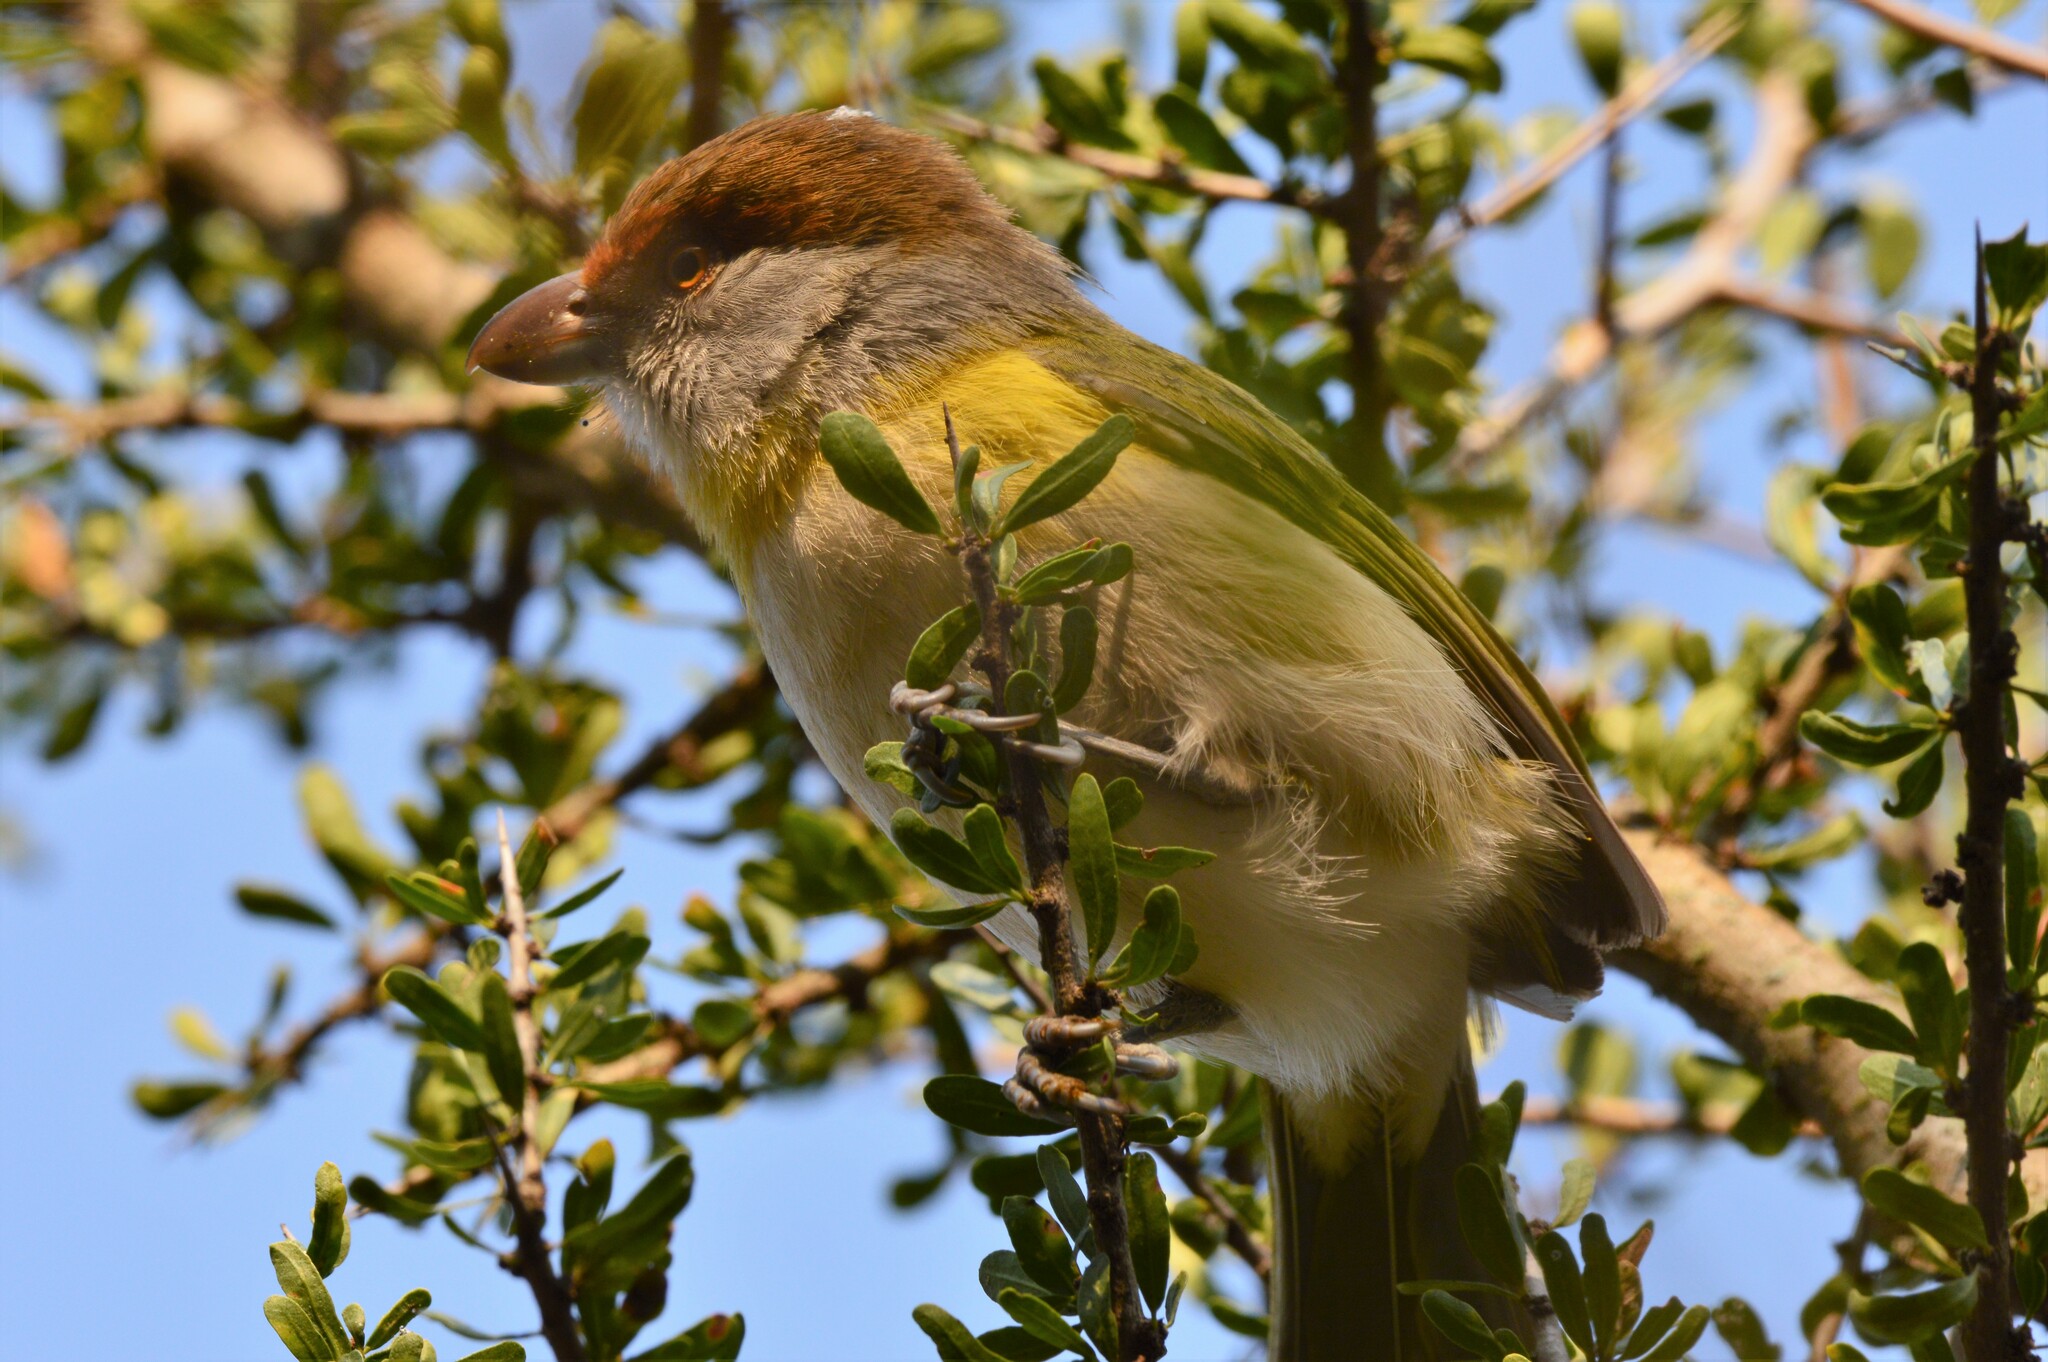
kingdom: Animalia
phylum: Chordata
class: Aves
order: Passeriformes
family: Vireonidae
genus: Cyclarhis
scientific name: Cyclarhis gujanensis
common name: Rufous-browed peppershrike
